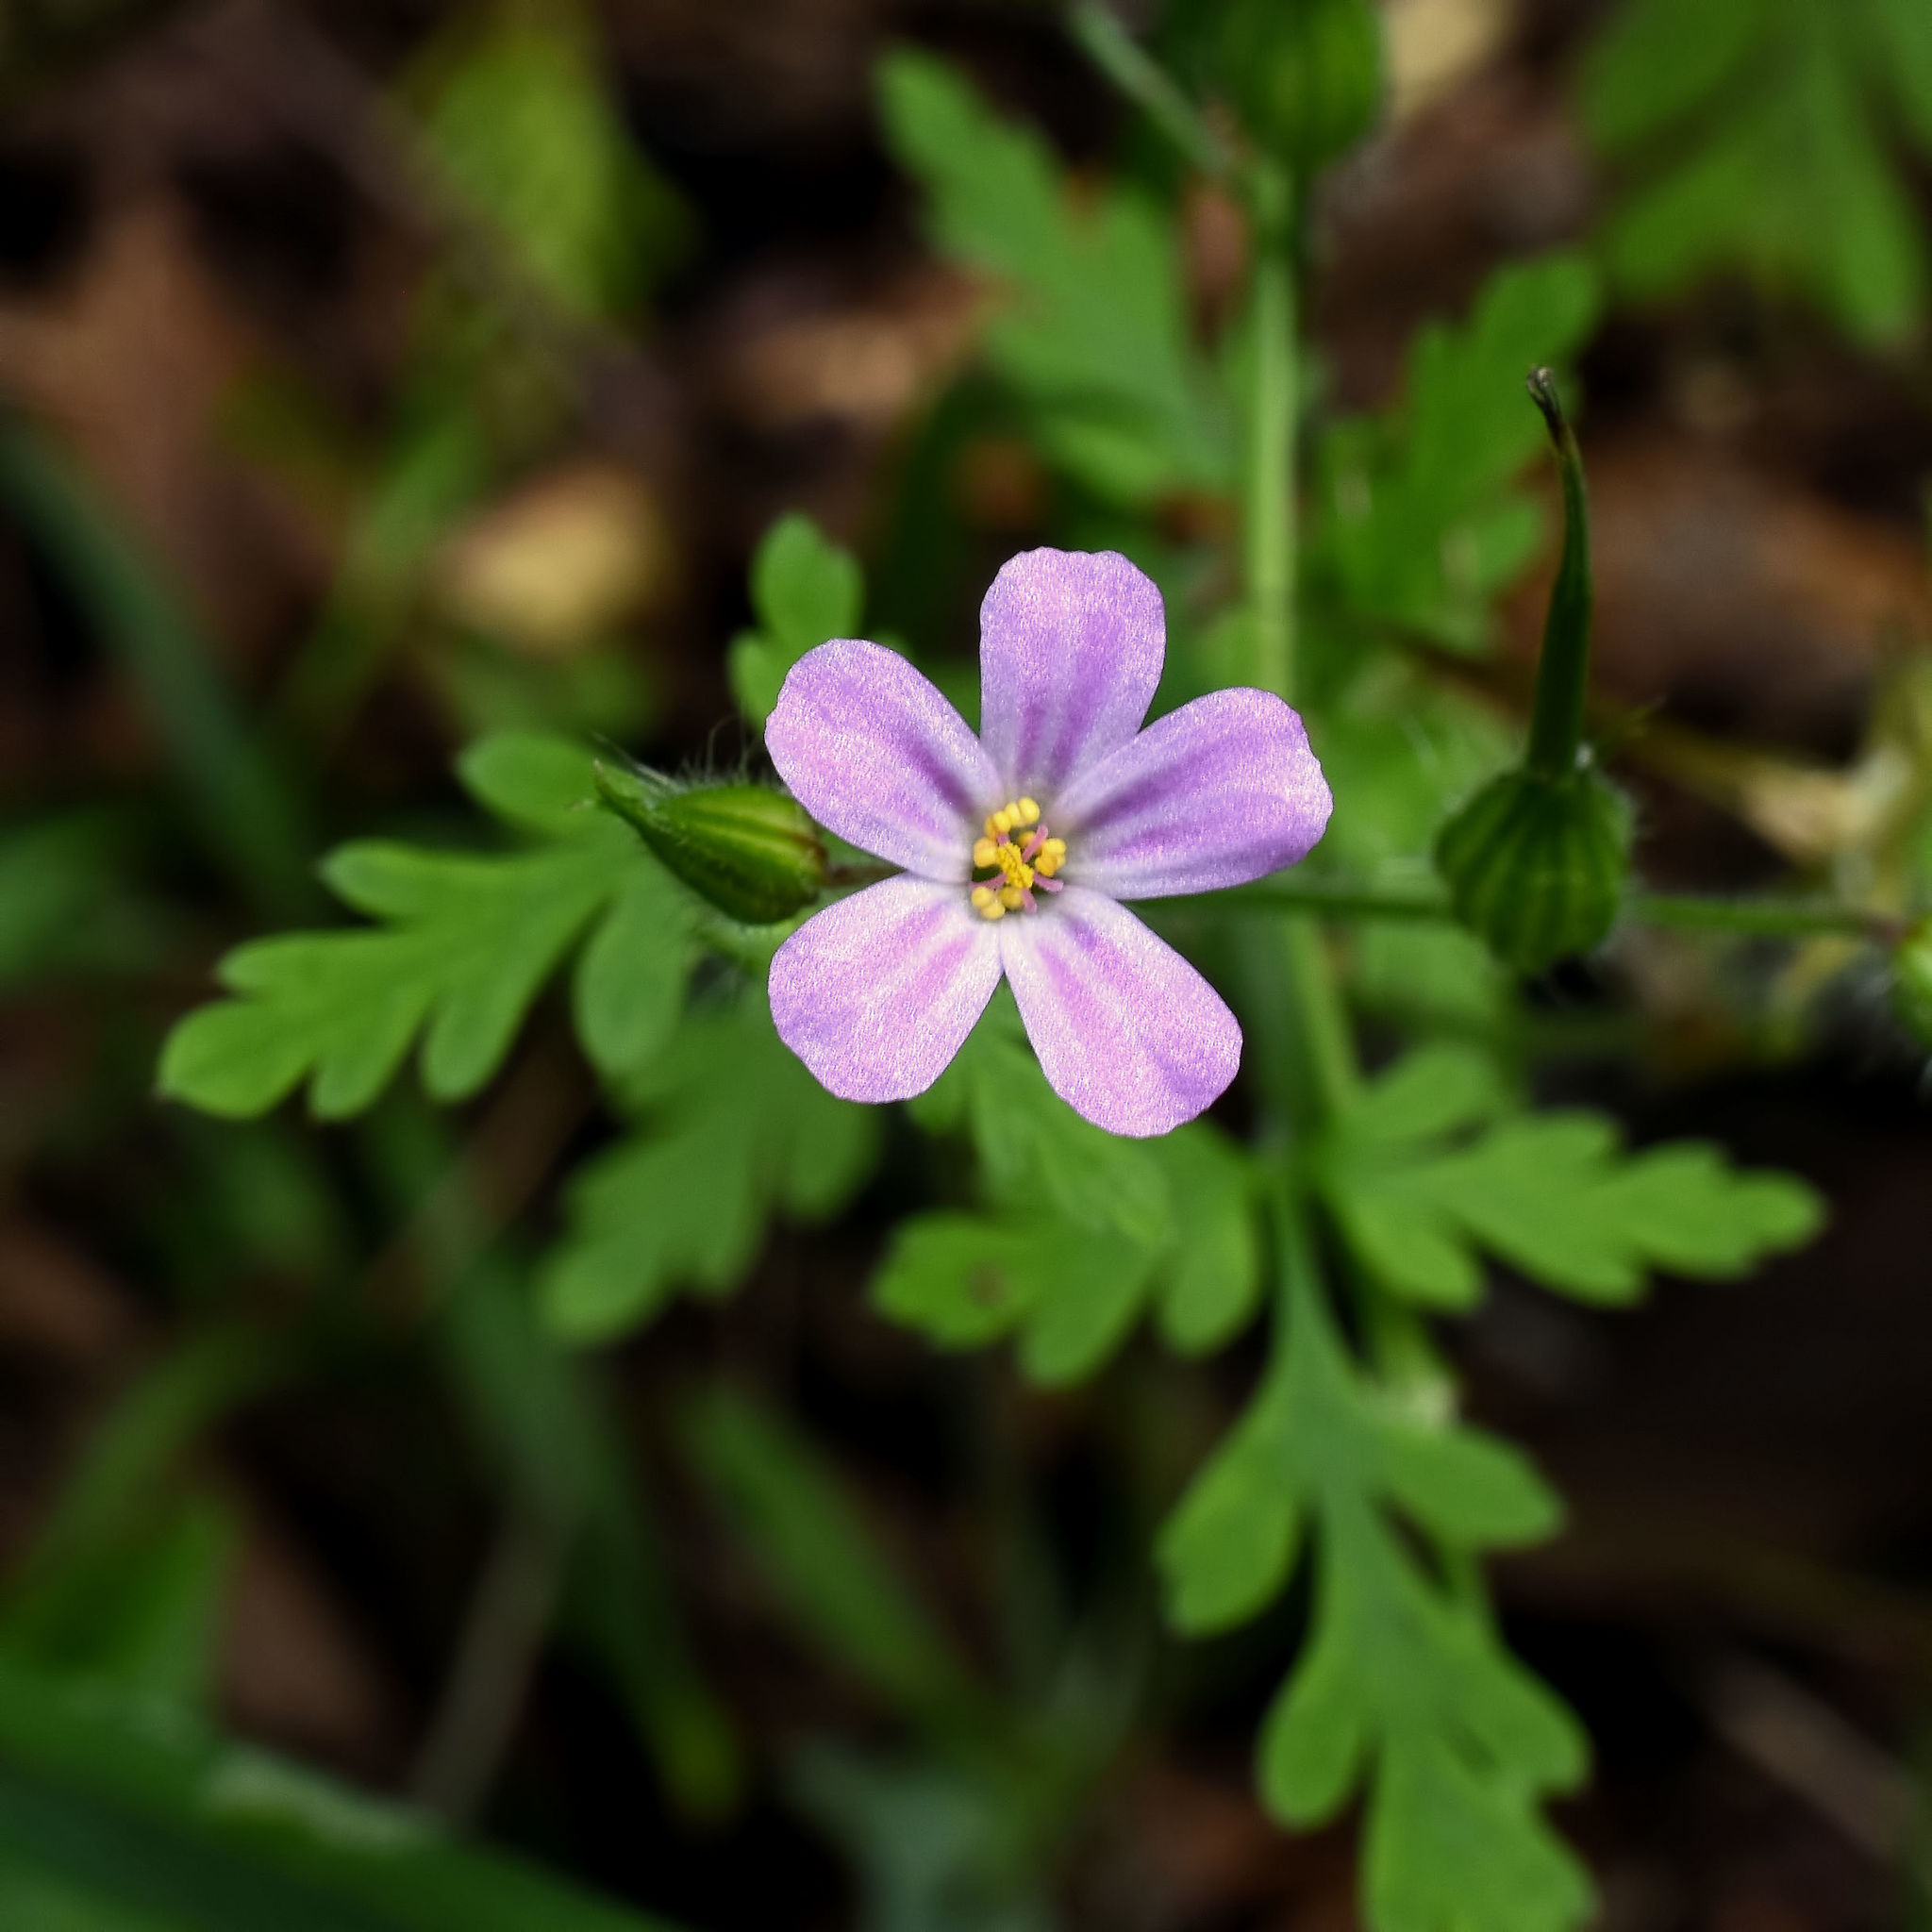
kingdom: Plantae
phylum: Tracheophyta
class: Magnoliopsida
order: Geraniales
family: Geraniaceae
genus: Geranium
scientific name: Geranium robertianum
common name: Herb-robert
